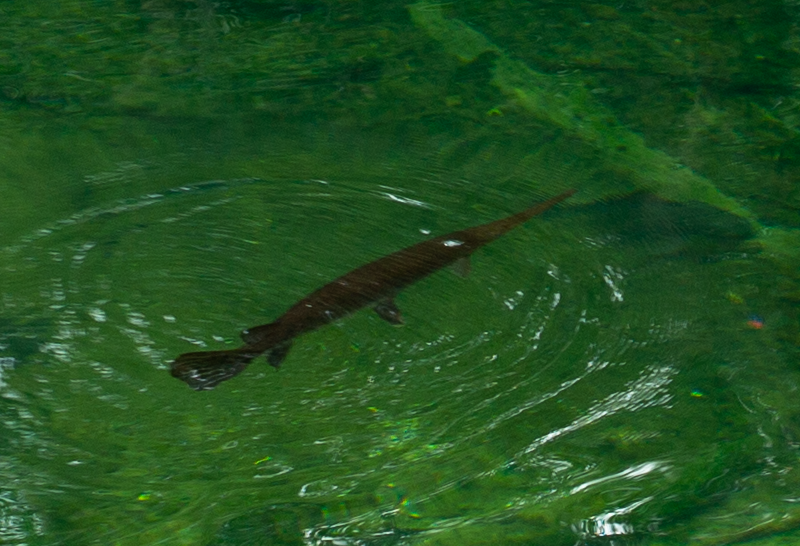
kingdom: Animalia
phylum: Chordata
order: Lepisosteiformes
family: Lepisosteidae
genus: Lepisosteus
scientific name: Lepisosteus osseus
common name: Longnose gar
